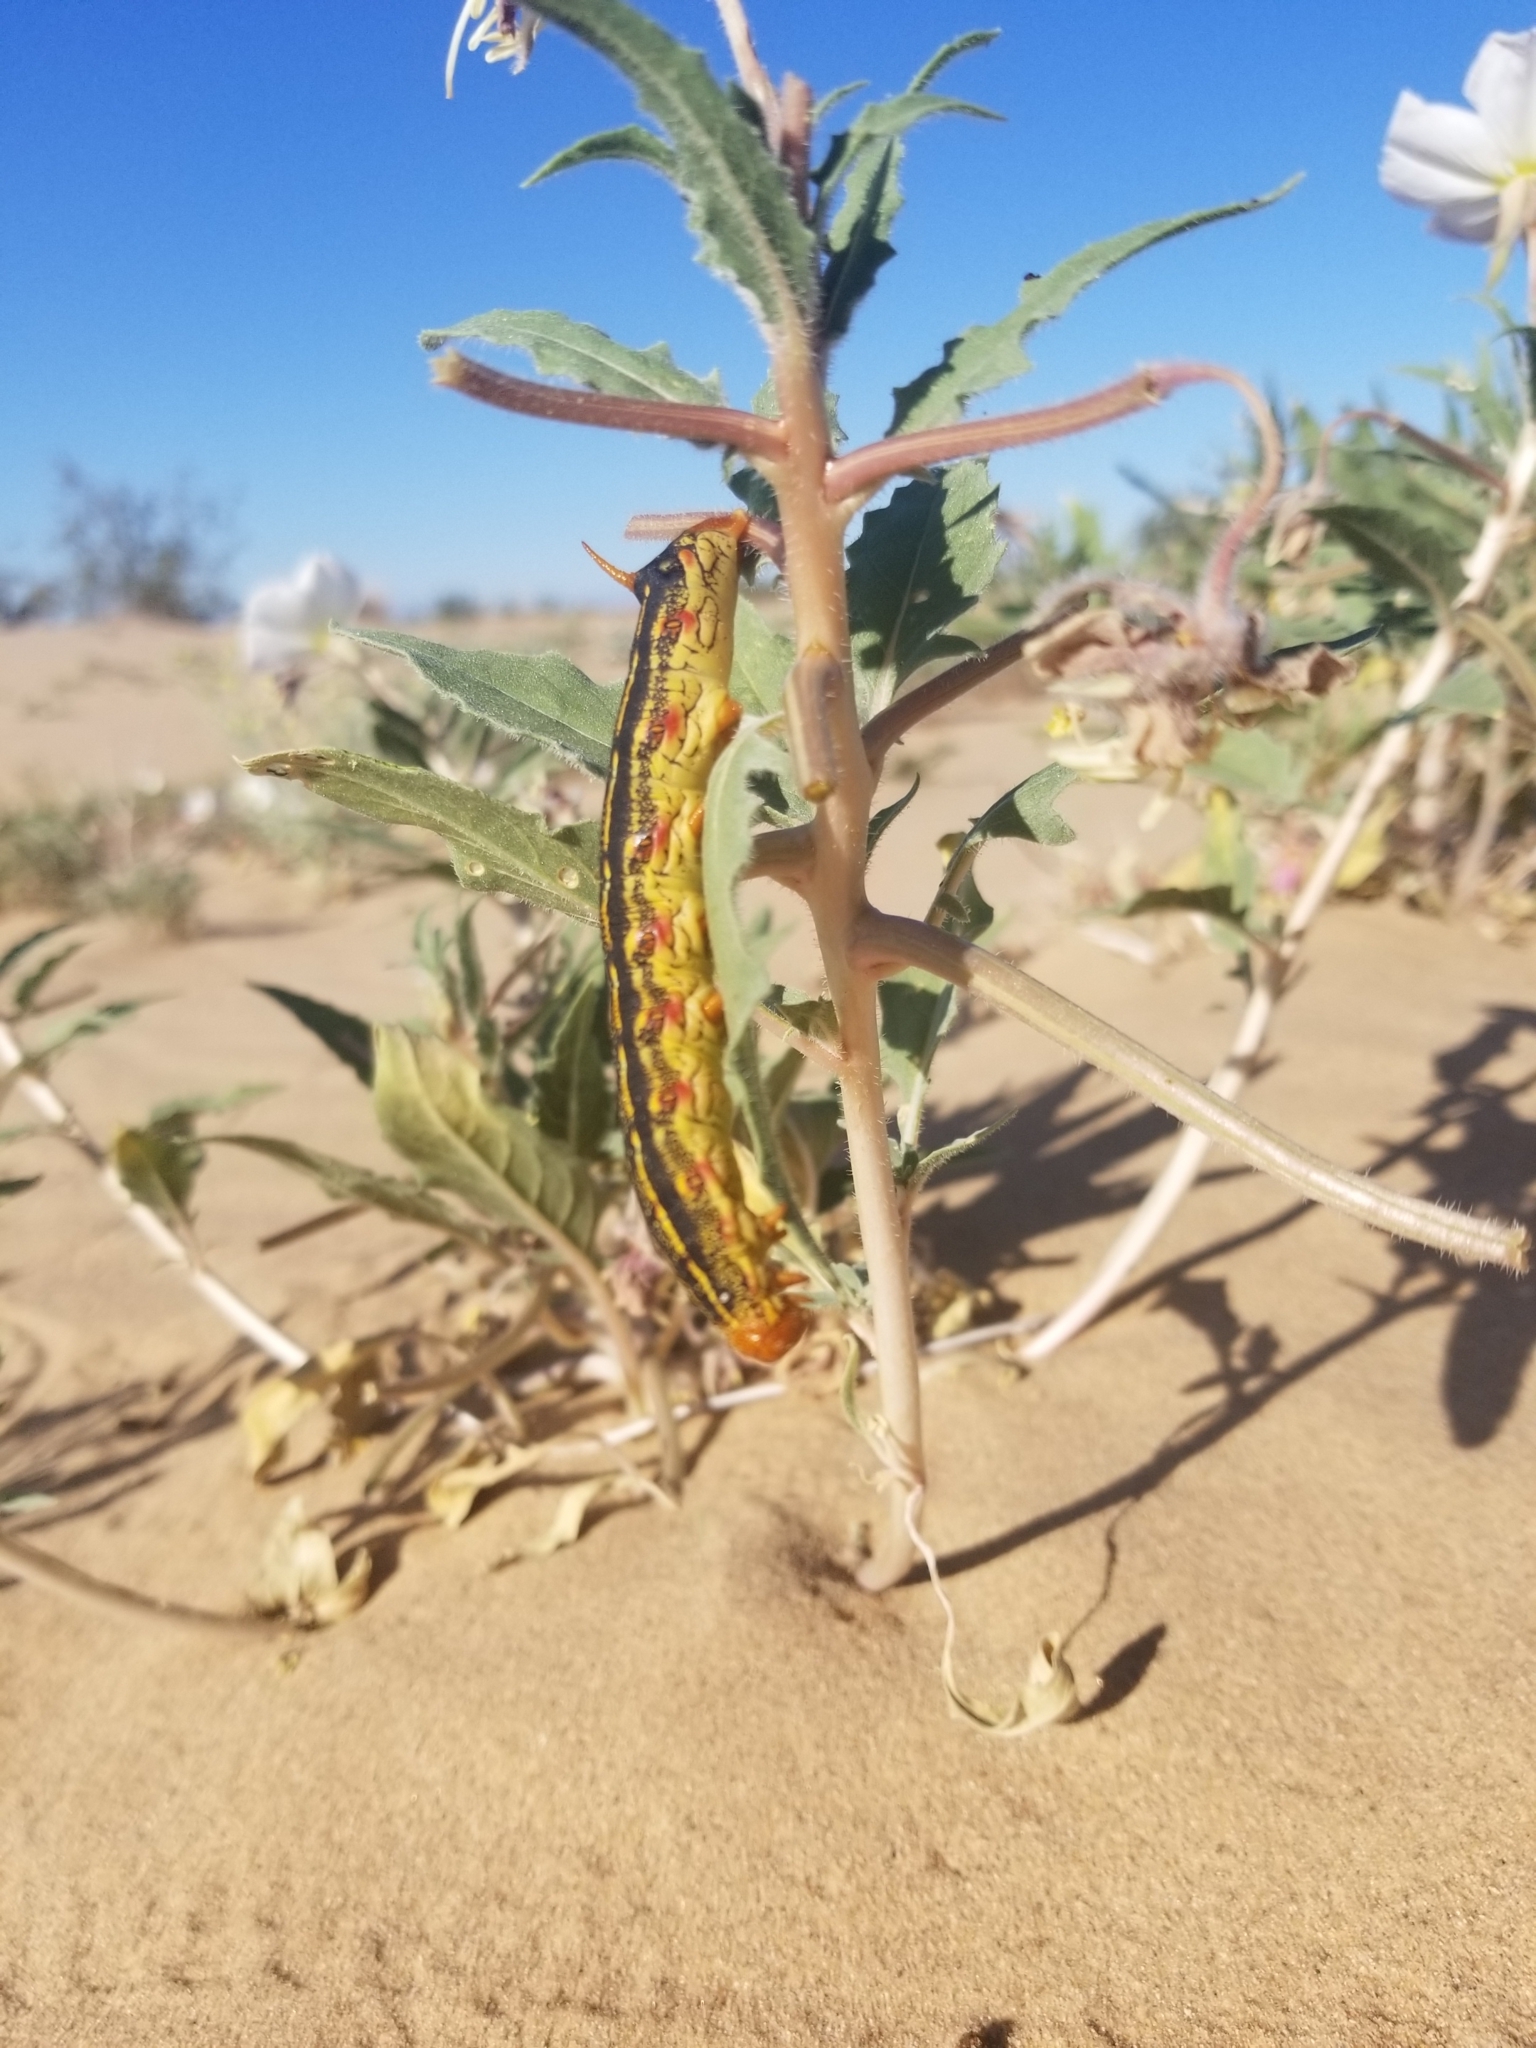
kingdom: Animalia
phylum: Arthropoda
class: Insecta
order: Lepidoptera
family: Sphingidae
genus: Hyles
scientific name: Hyles lineata
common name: White-lined sphinx
